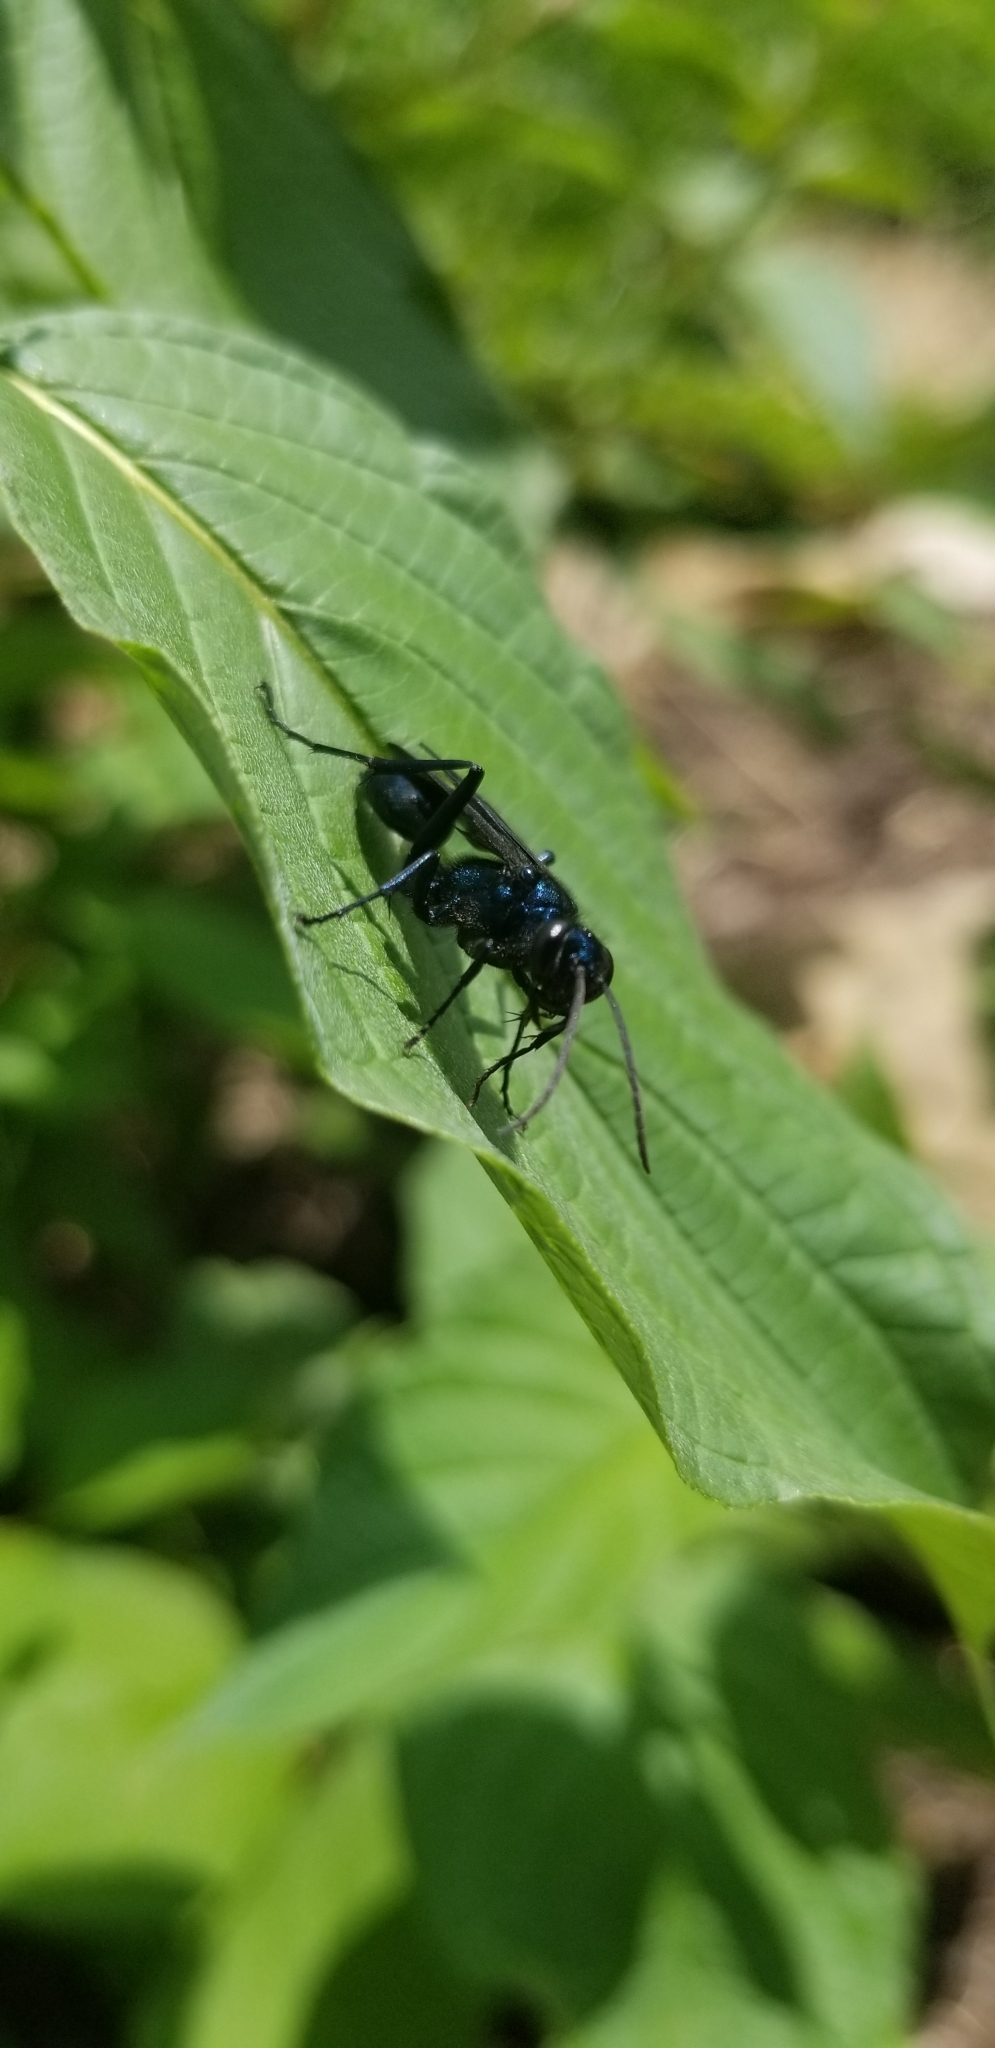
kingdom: Animalia
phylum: Arthropoda
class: Insecta
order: Hymenoptera
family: Sphecidae
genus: Chalybion
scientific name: Chalybion californicum
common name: Mud dauber
